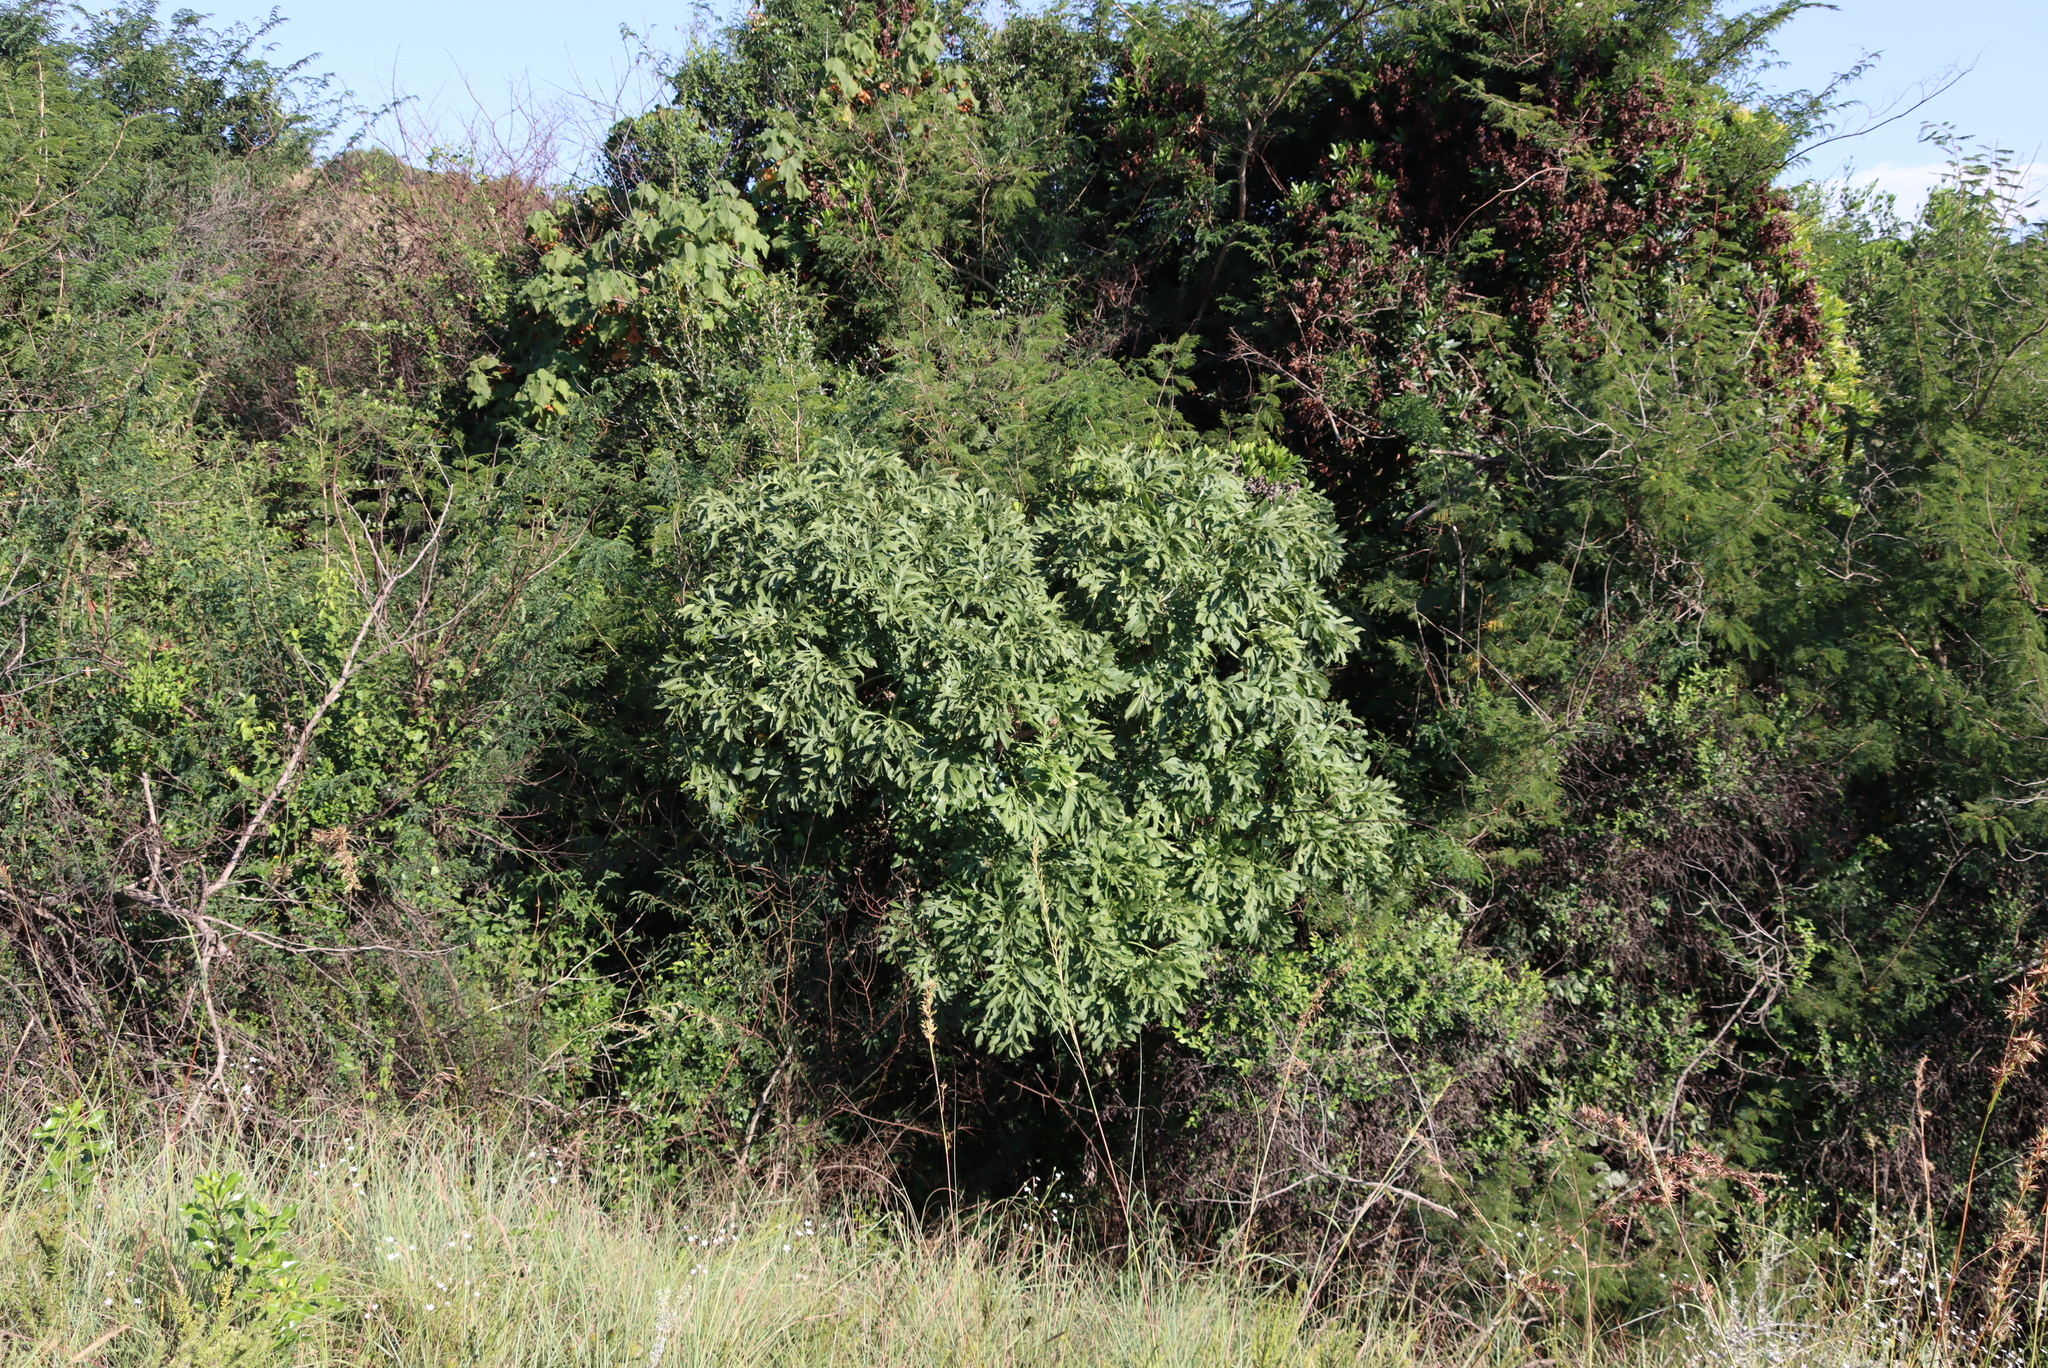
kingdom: Plantae
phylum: Tracheophyta
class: Magnoliopsida
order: Apiales
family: Araliaceae
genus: Cussonia
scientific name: Cussonia spicata
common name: Common cabbagetree
